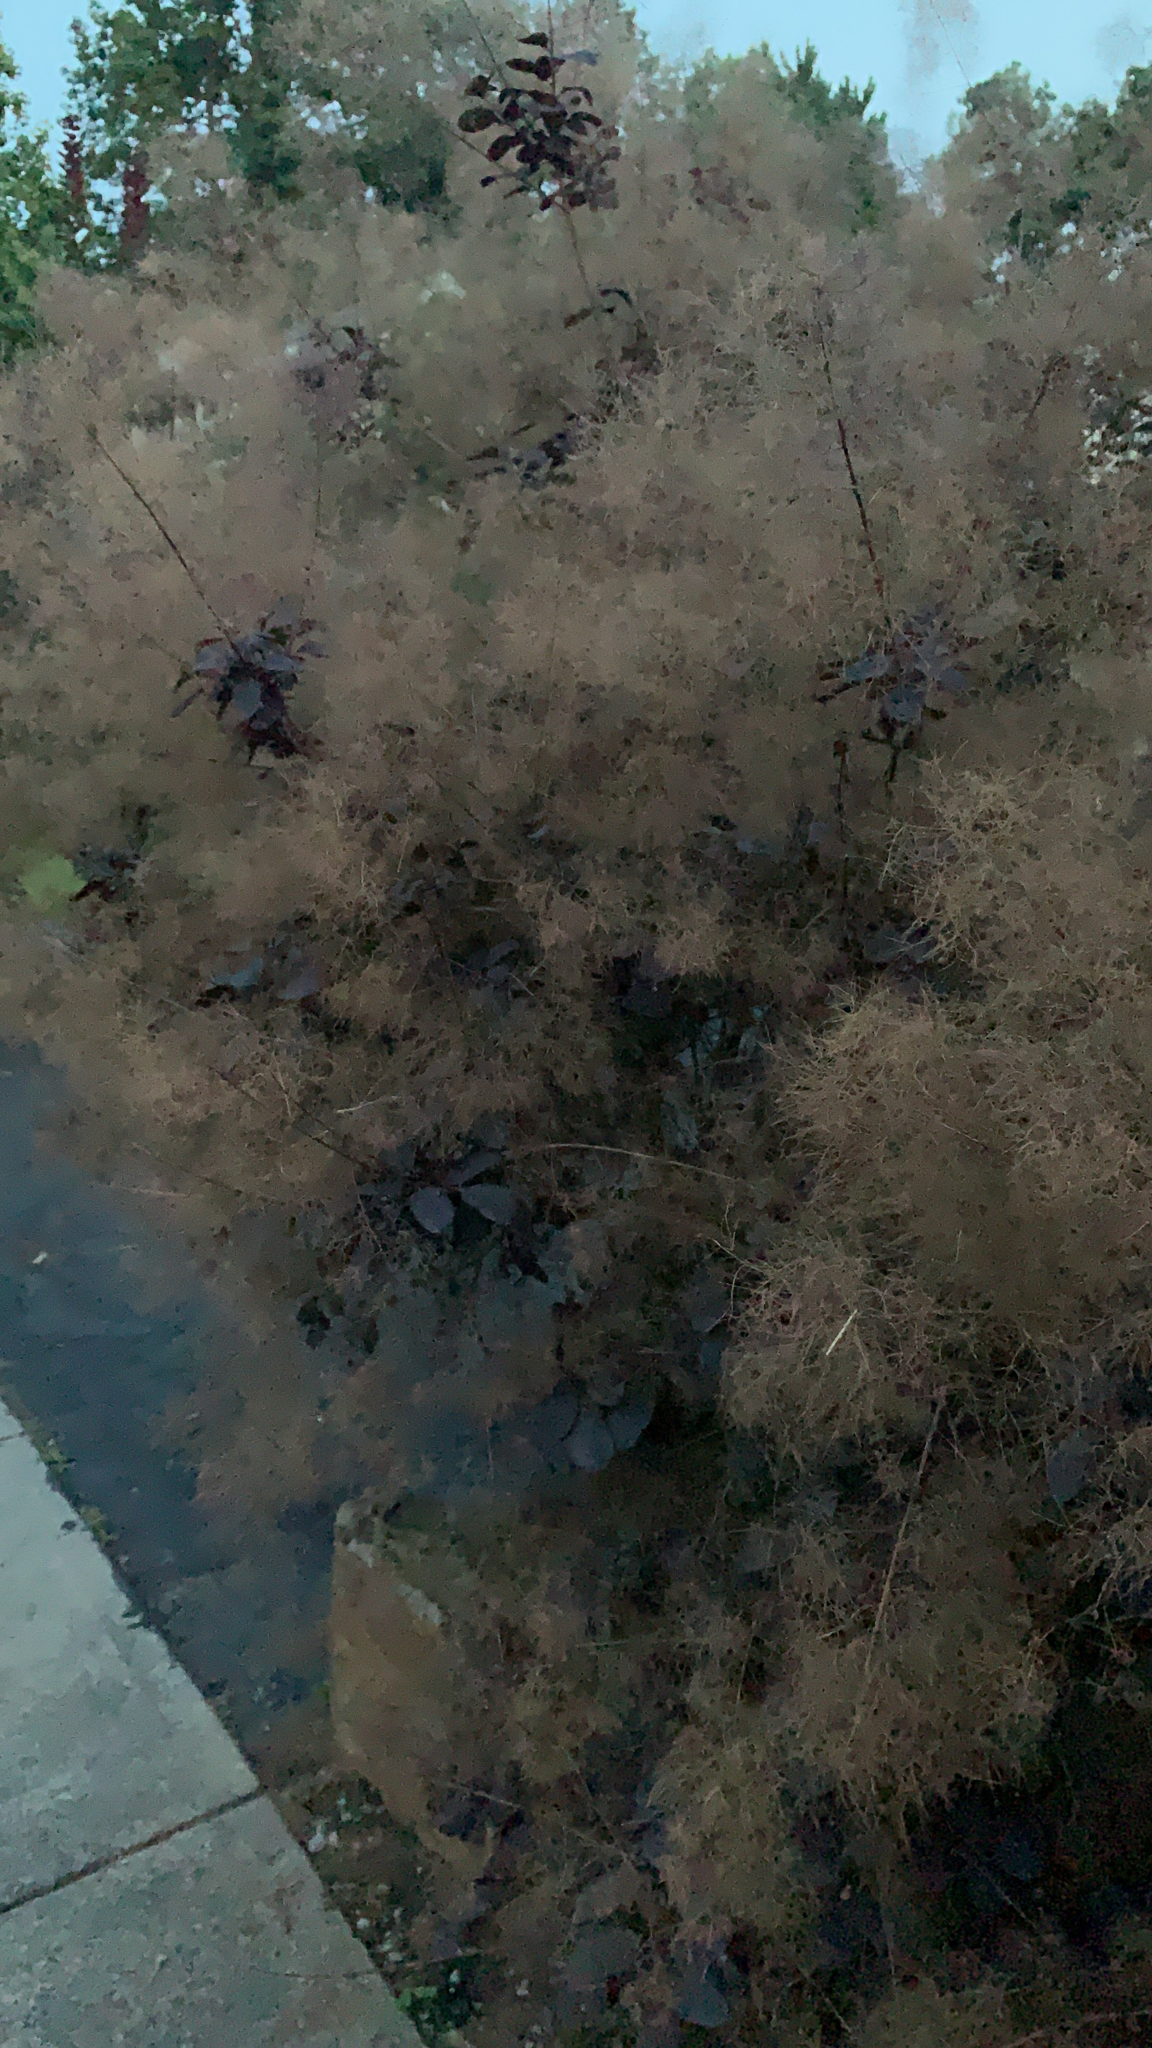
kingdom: Plantae
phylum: Tracheophyta
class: Magnoliopsida
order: Sapindales
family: Anacardiaceae
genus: Cotinus
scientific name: Cotinus coggygria
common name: Smoke-tree
